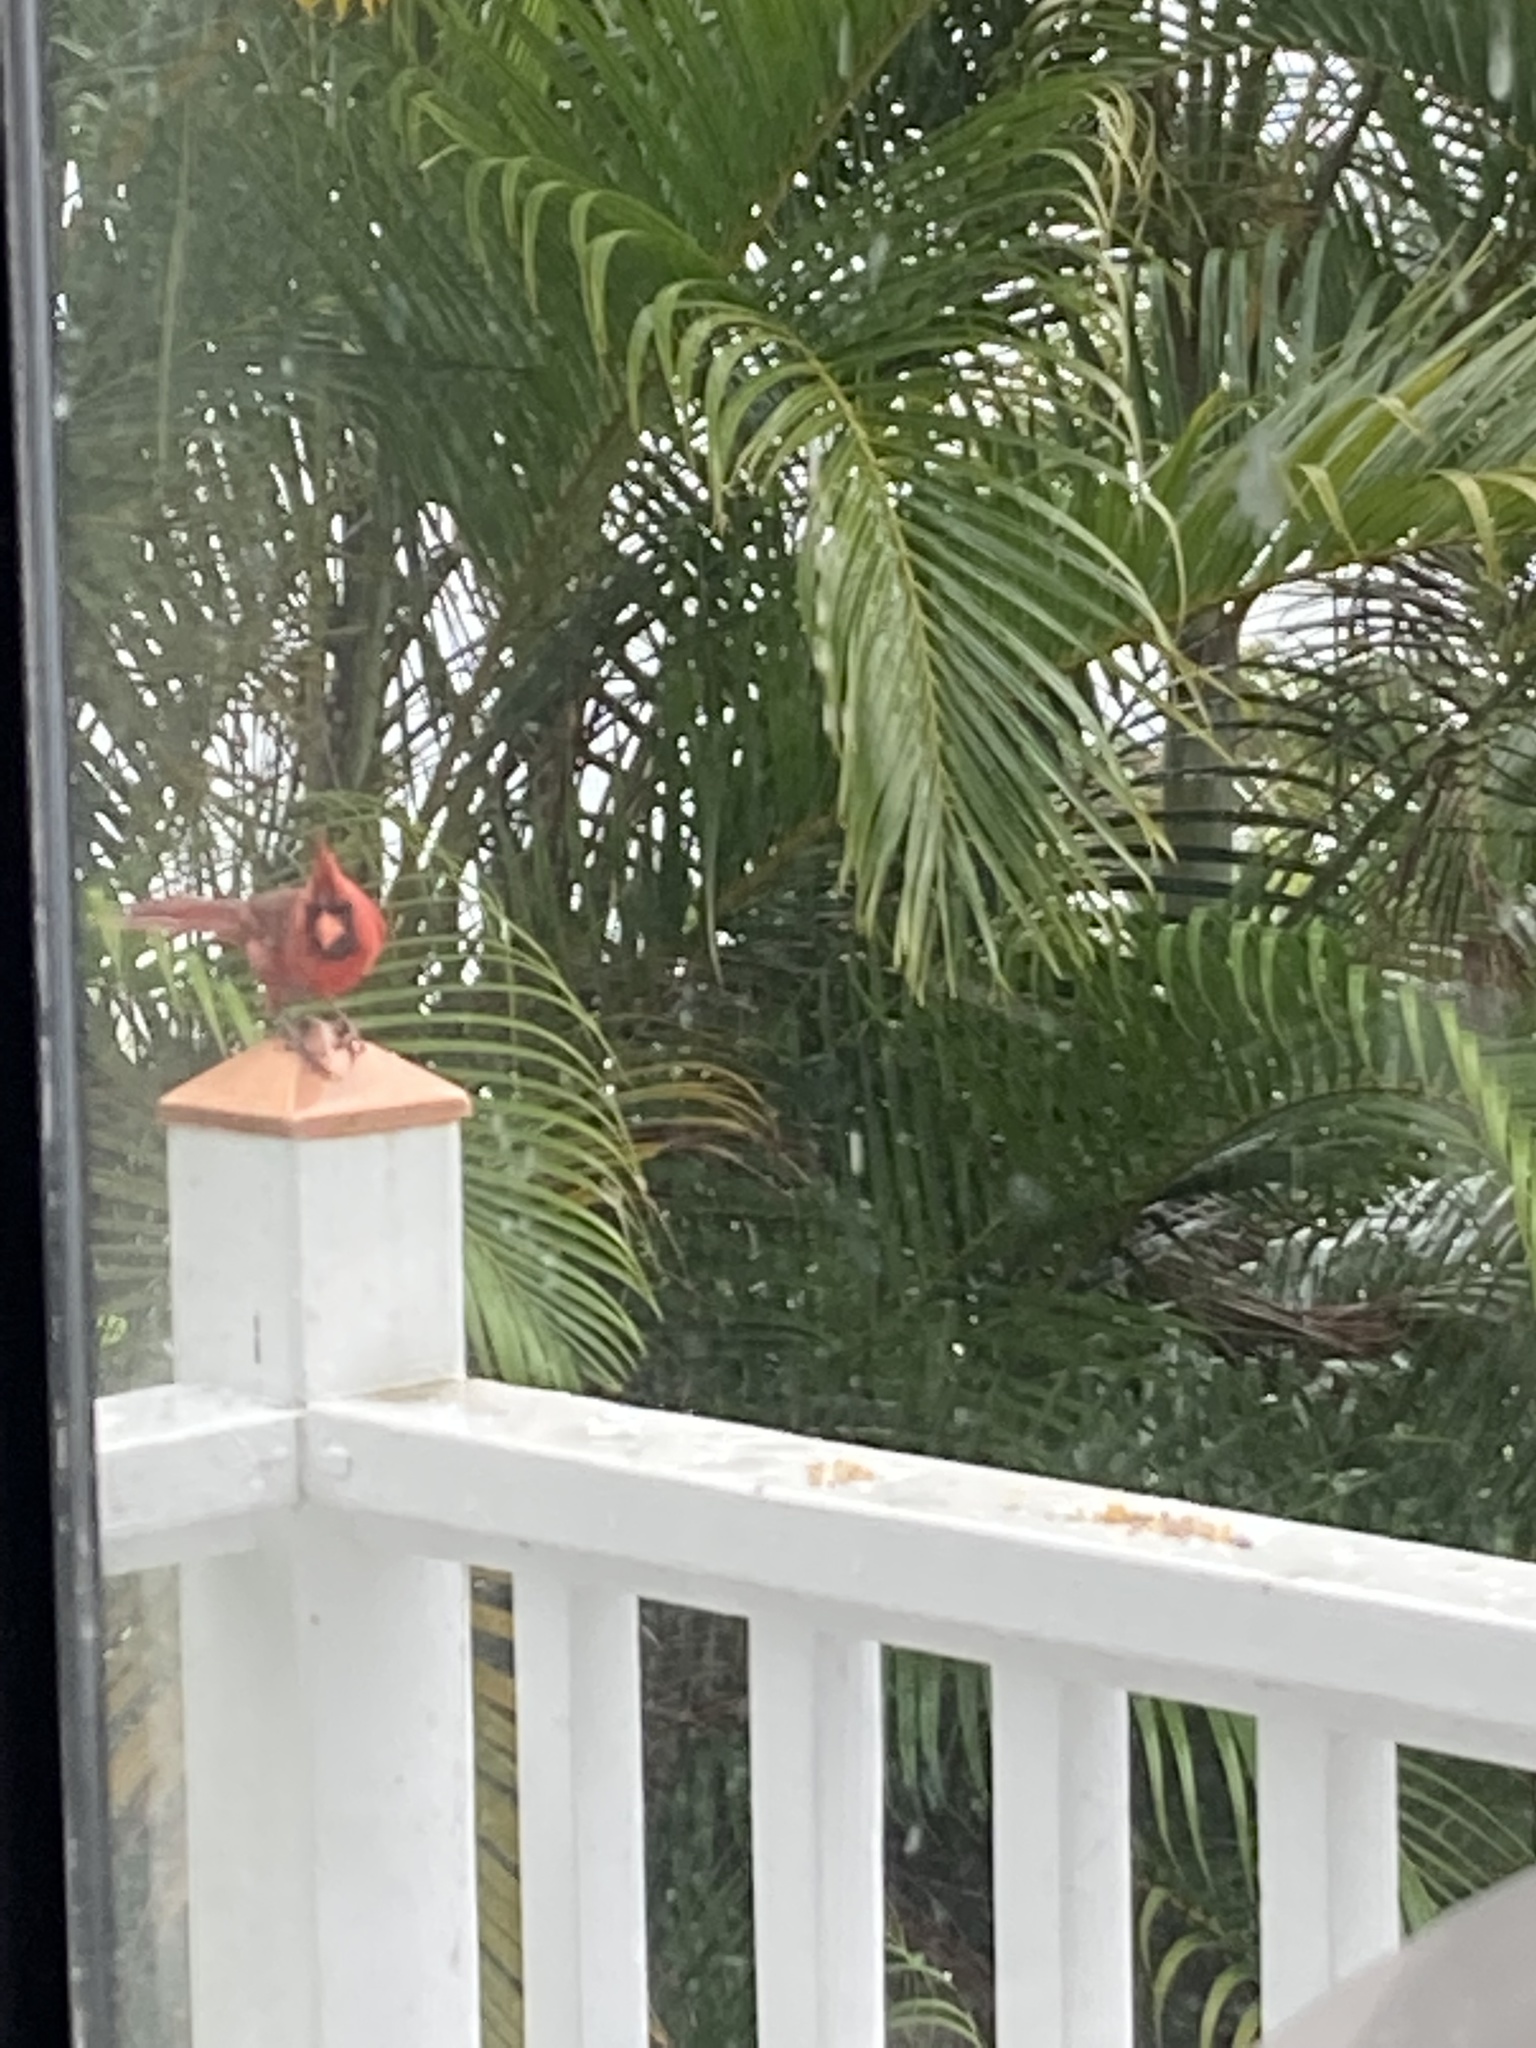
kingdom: Animalia
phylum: Chordata
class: Aves
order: Passeriformes
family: Cardinalidae
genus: Cardinalis
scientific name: Cardinalis cardinalis
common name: Northern cardinal
